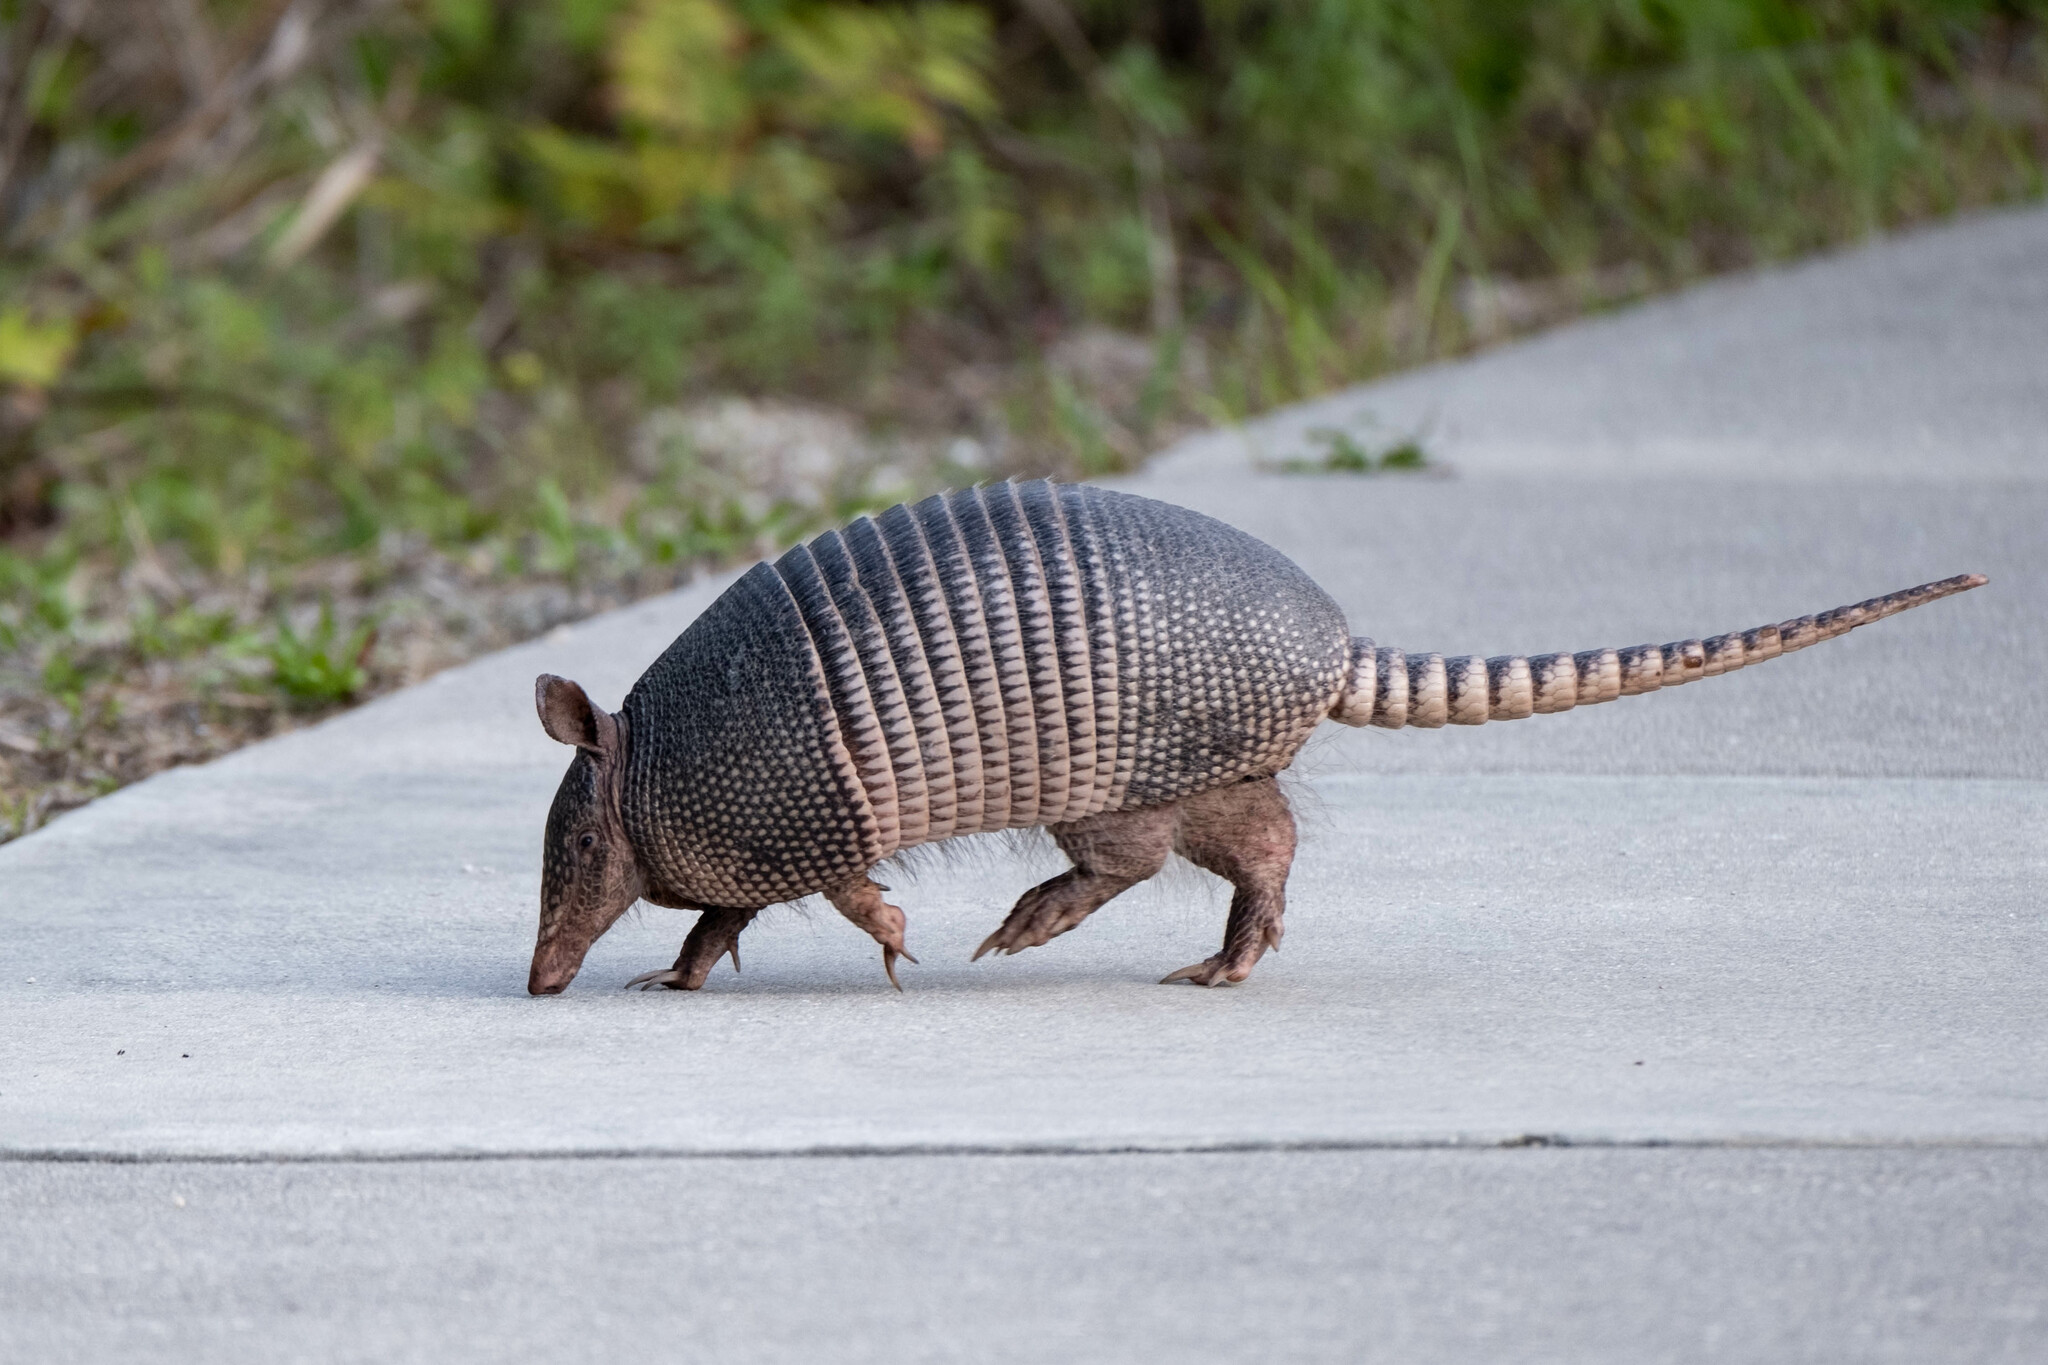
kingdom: Animalia
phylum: Chordata
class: Mammalia
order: Cingulata
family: Dasypodidae
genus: Dasypus
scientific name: Dasypus novemcinctus
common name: Nine-banded armadillo
